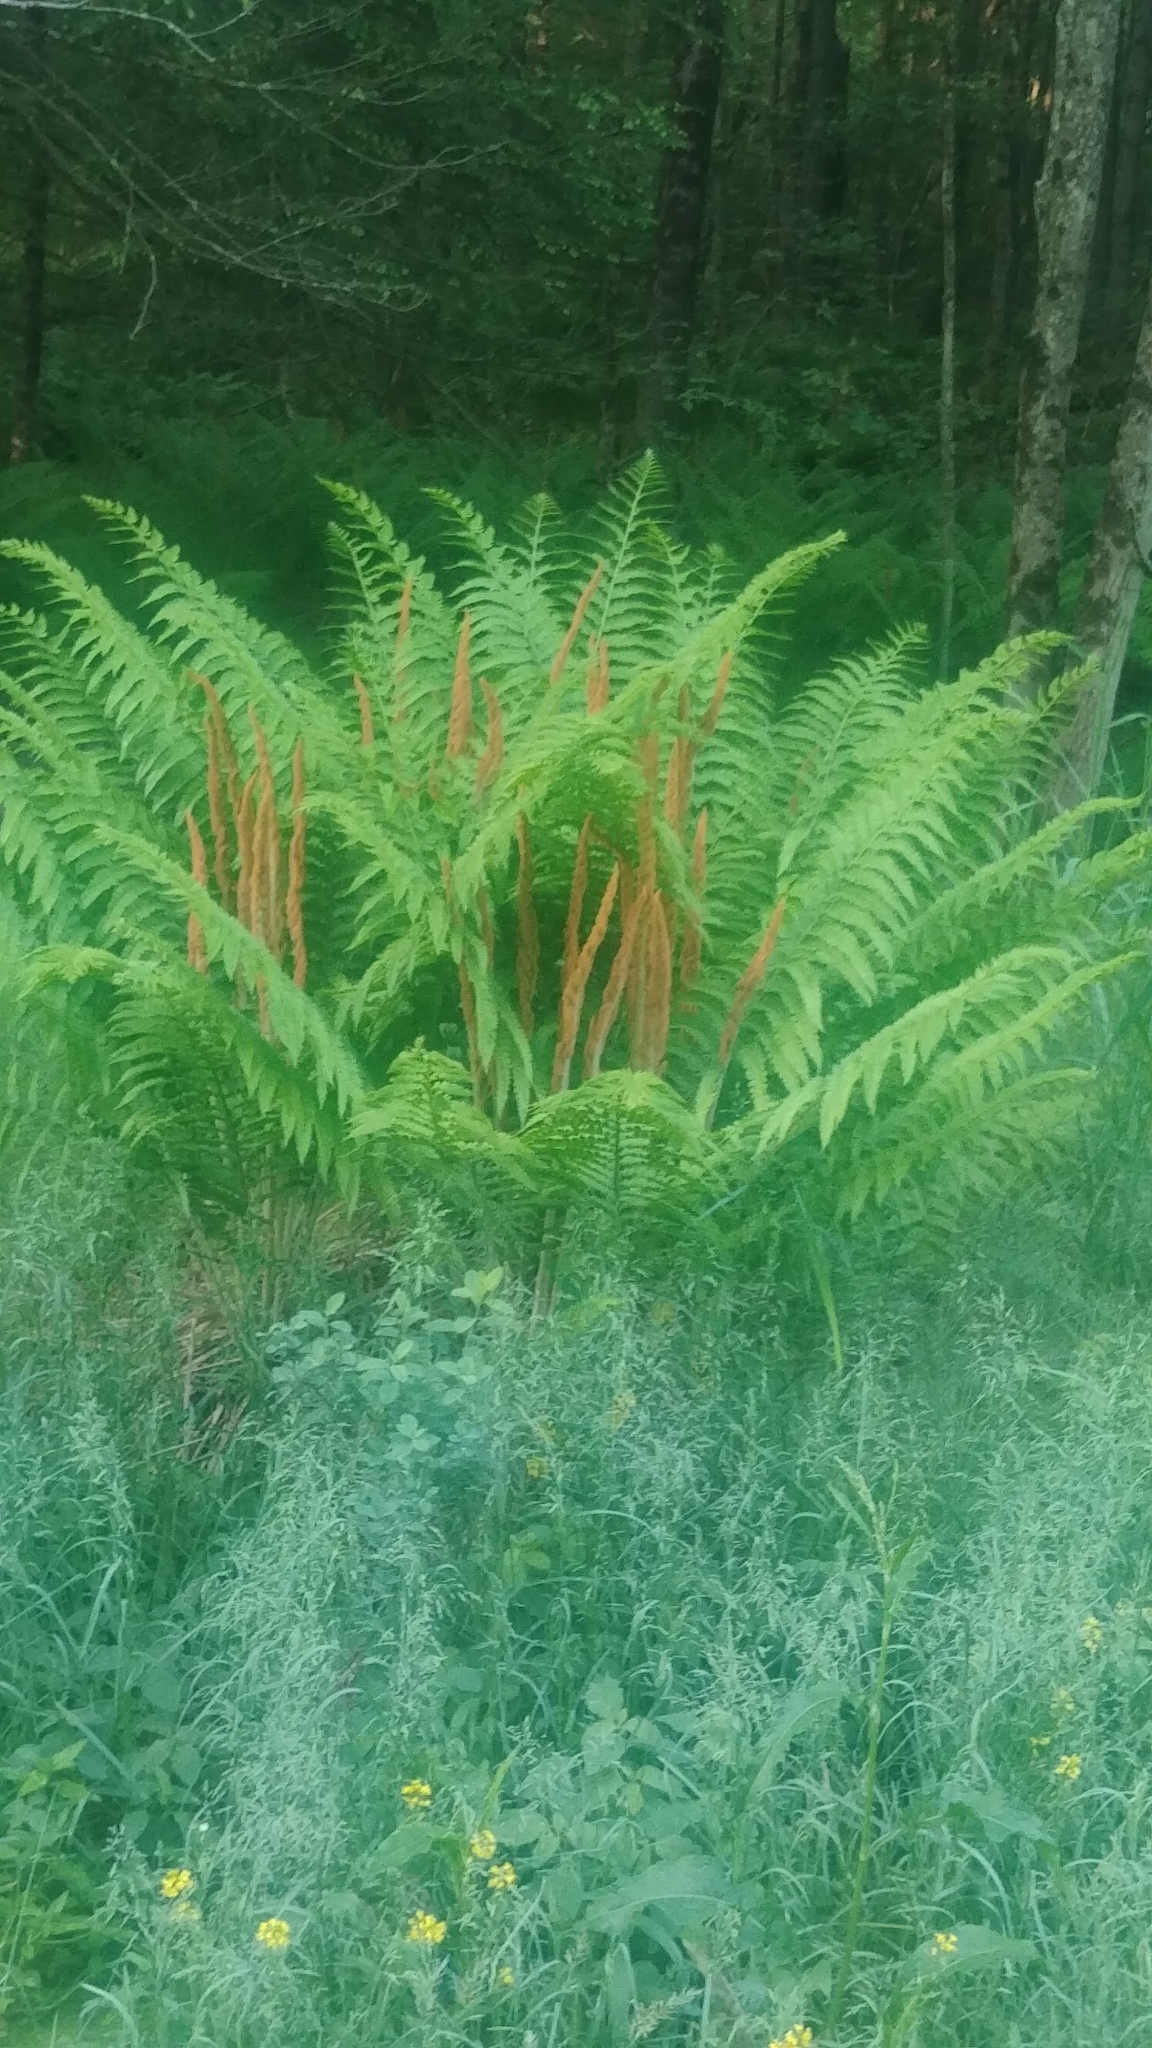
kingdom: Plantae
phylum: Tracheophyta
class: Polypodiopsida
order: Osmundales
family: Osmundaceae
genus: Osmundastrum
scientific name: Osmundastrum cinnamomeum
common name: Cinnamon fern
